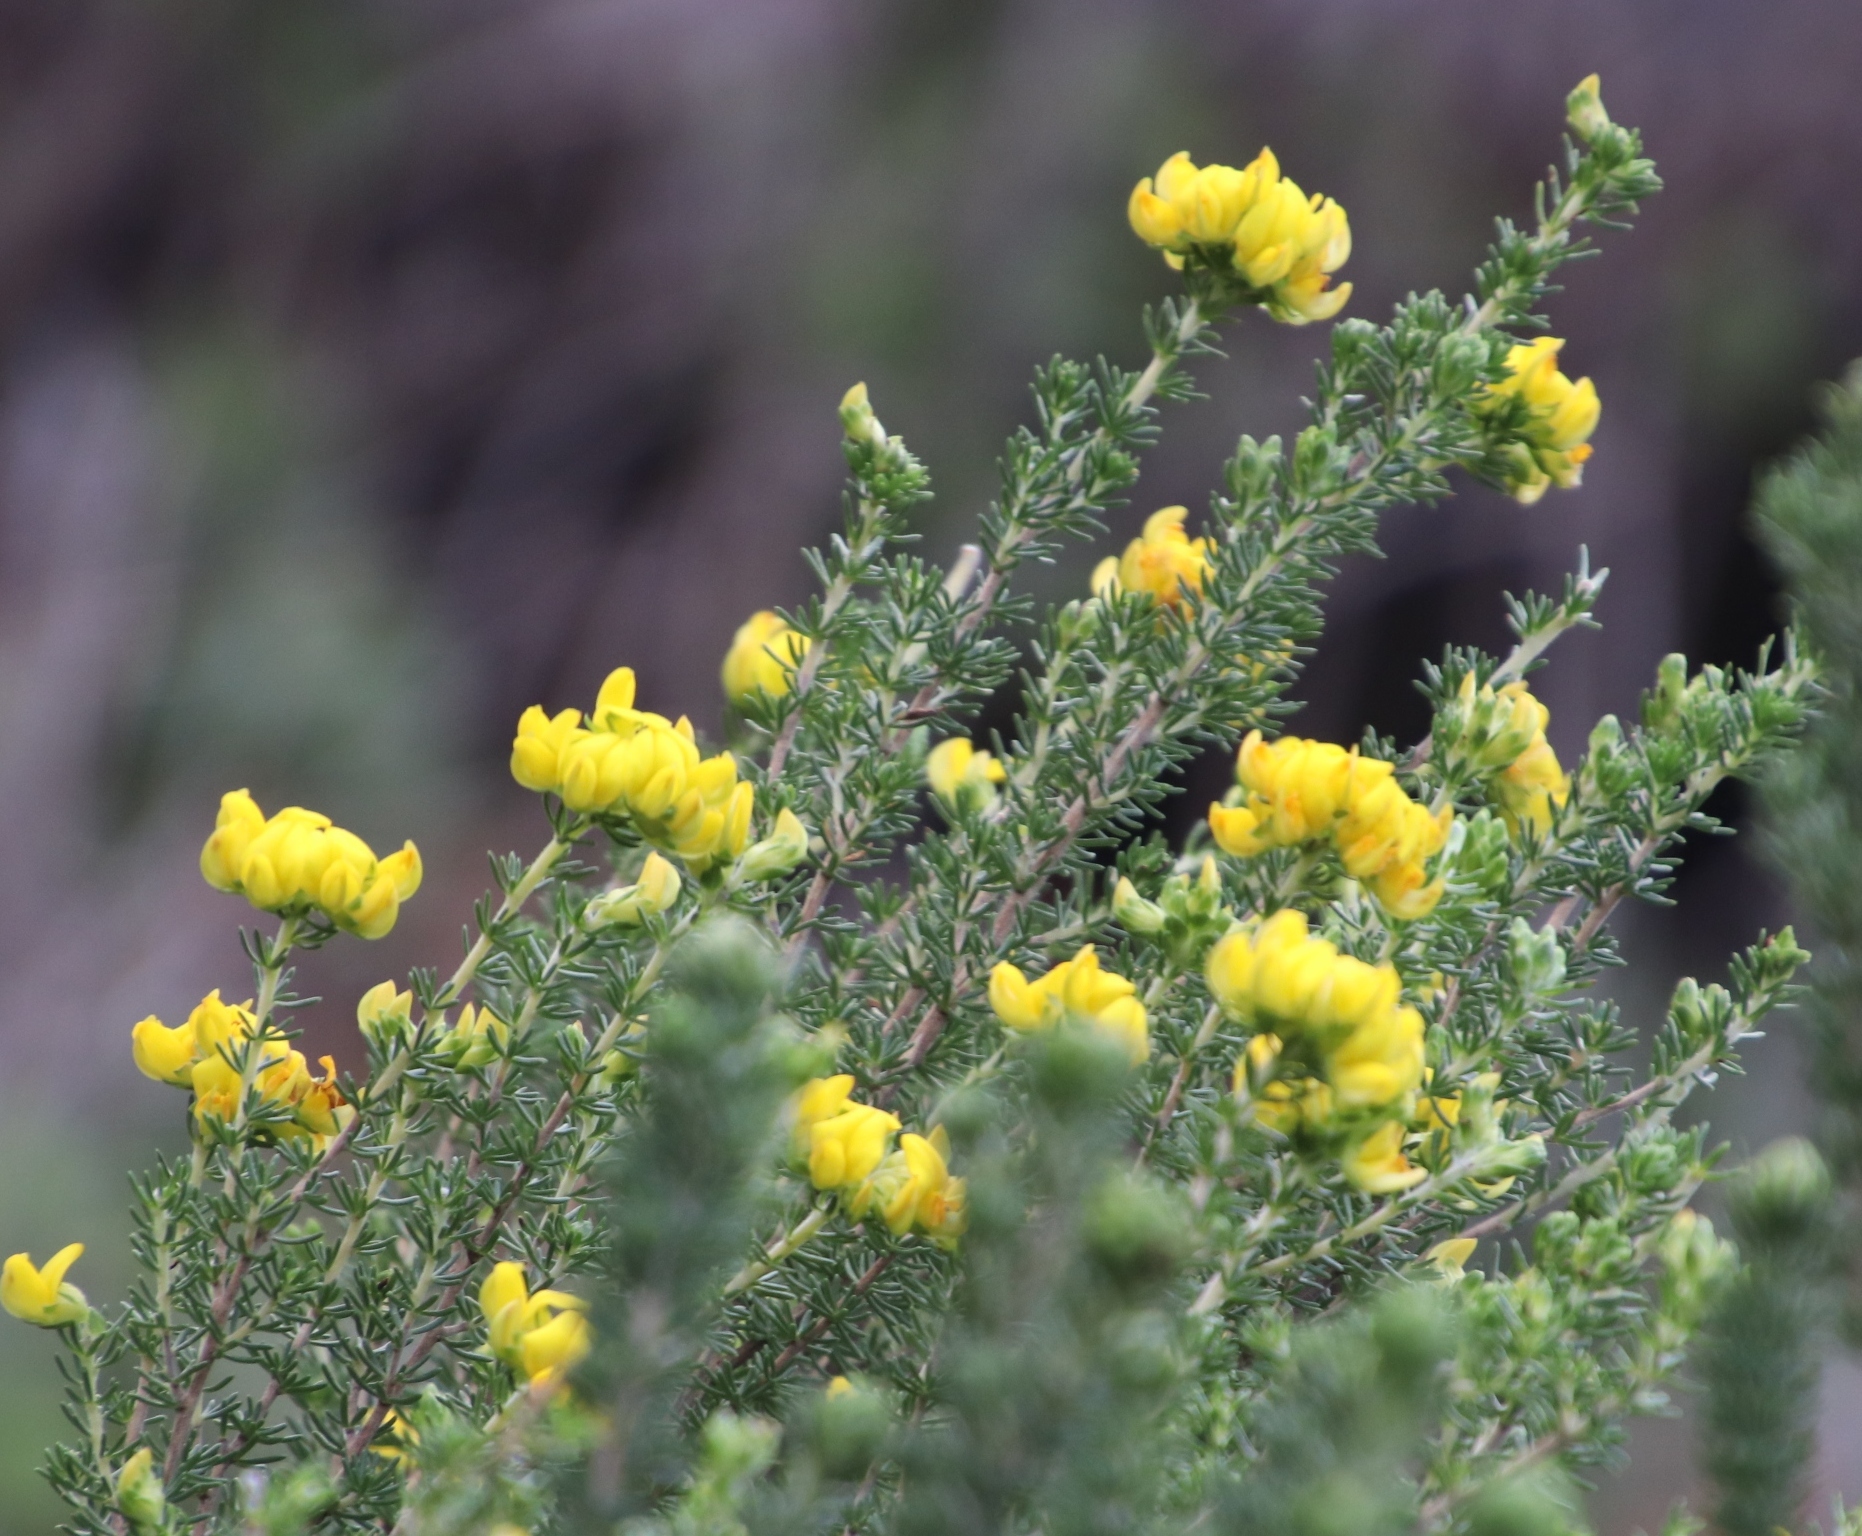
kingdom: Plantae
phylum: Tracheophyta
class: Magnoliopsida
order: Fabales
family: Fabaceae
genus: Aspalathus
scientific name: Aspalathus capitata
